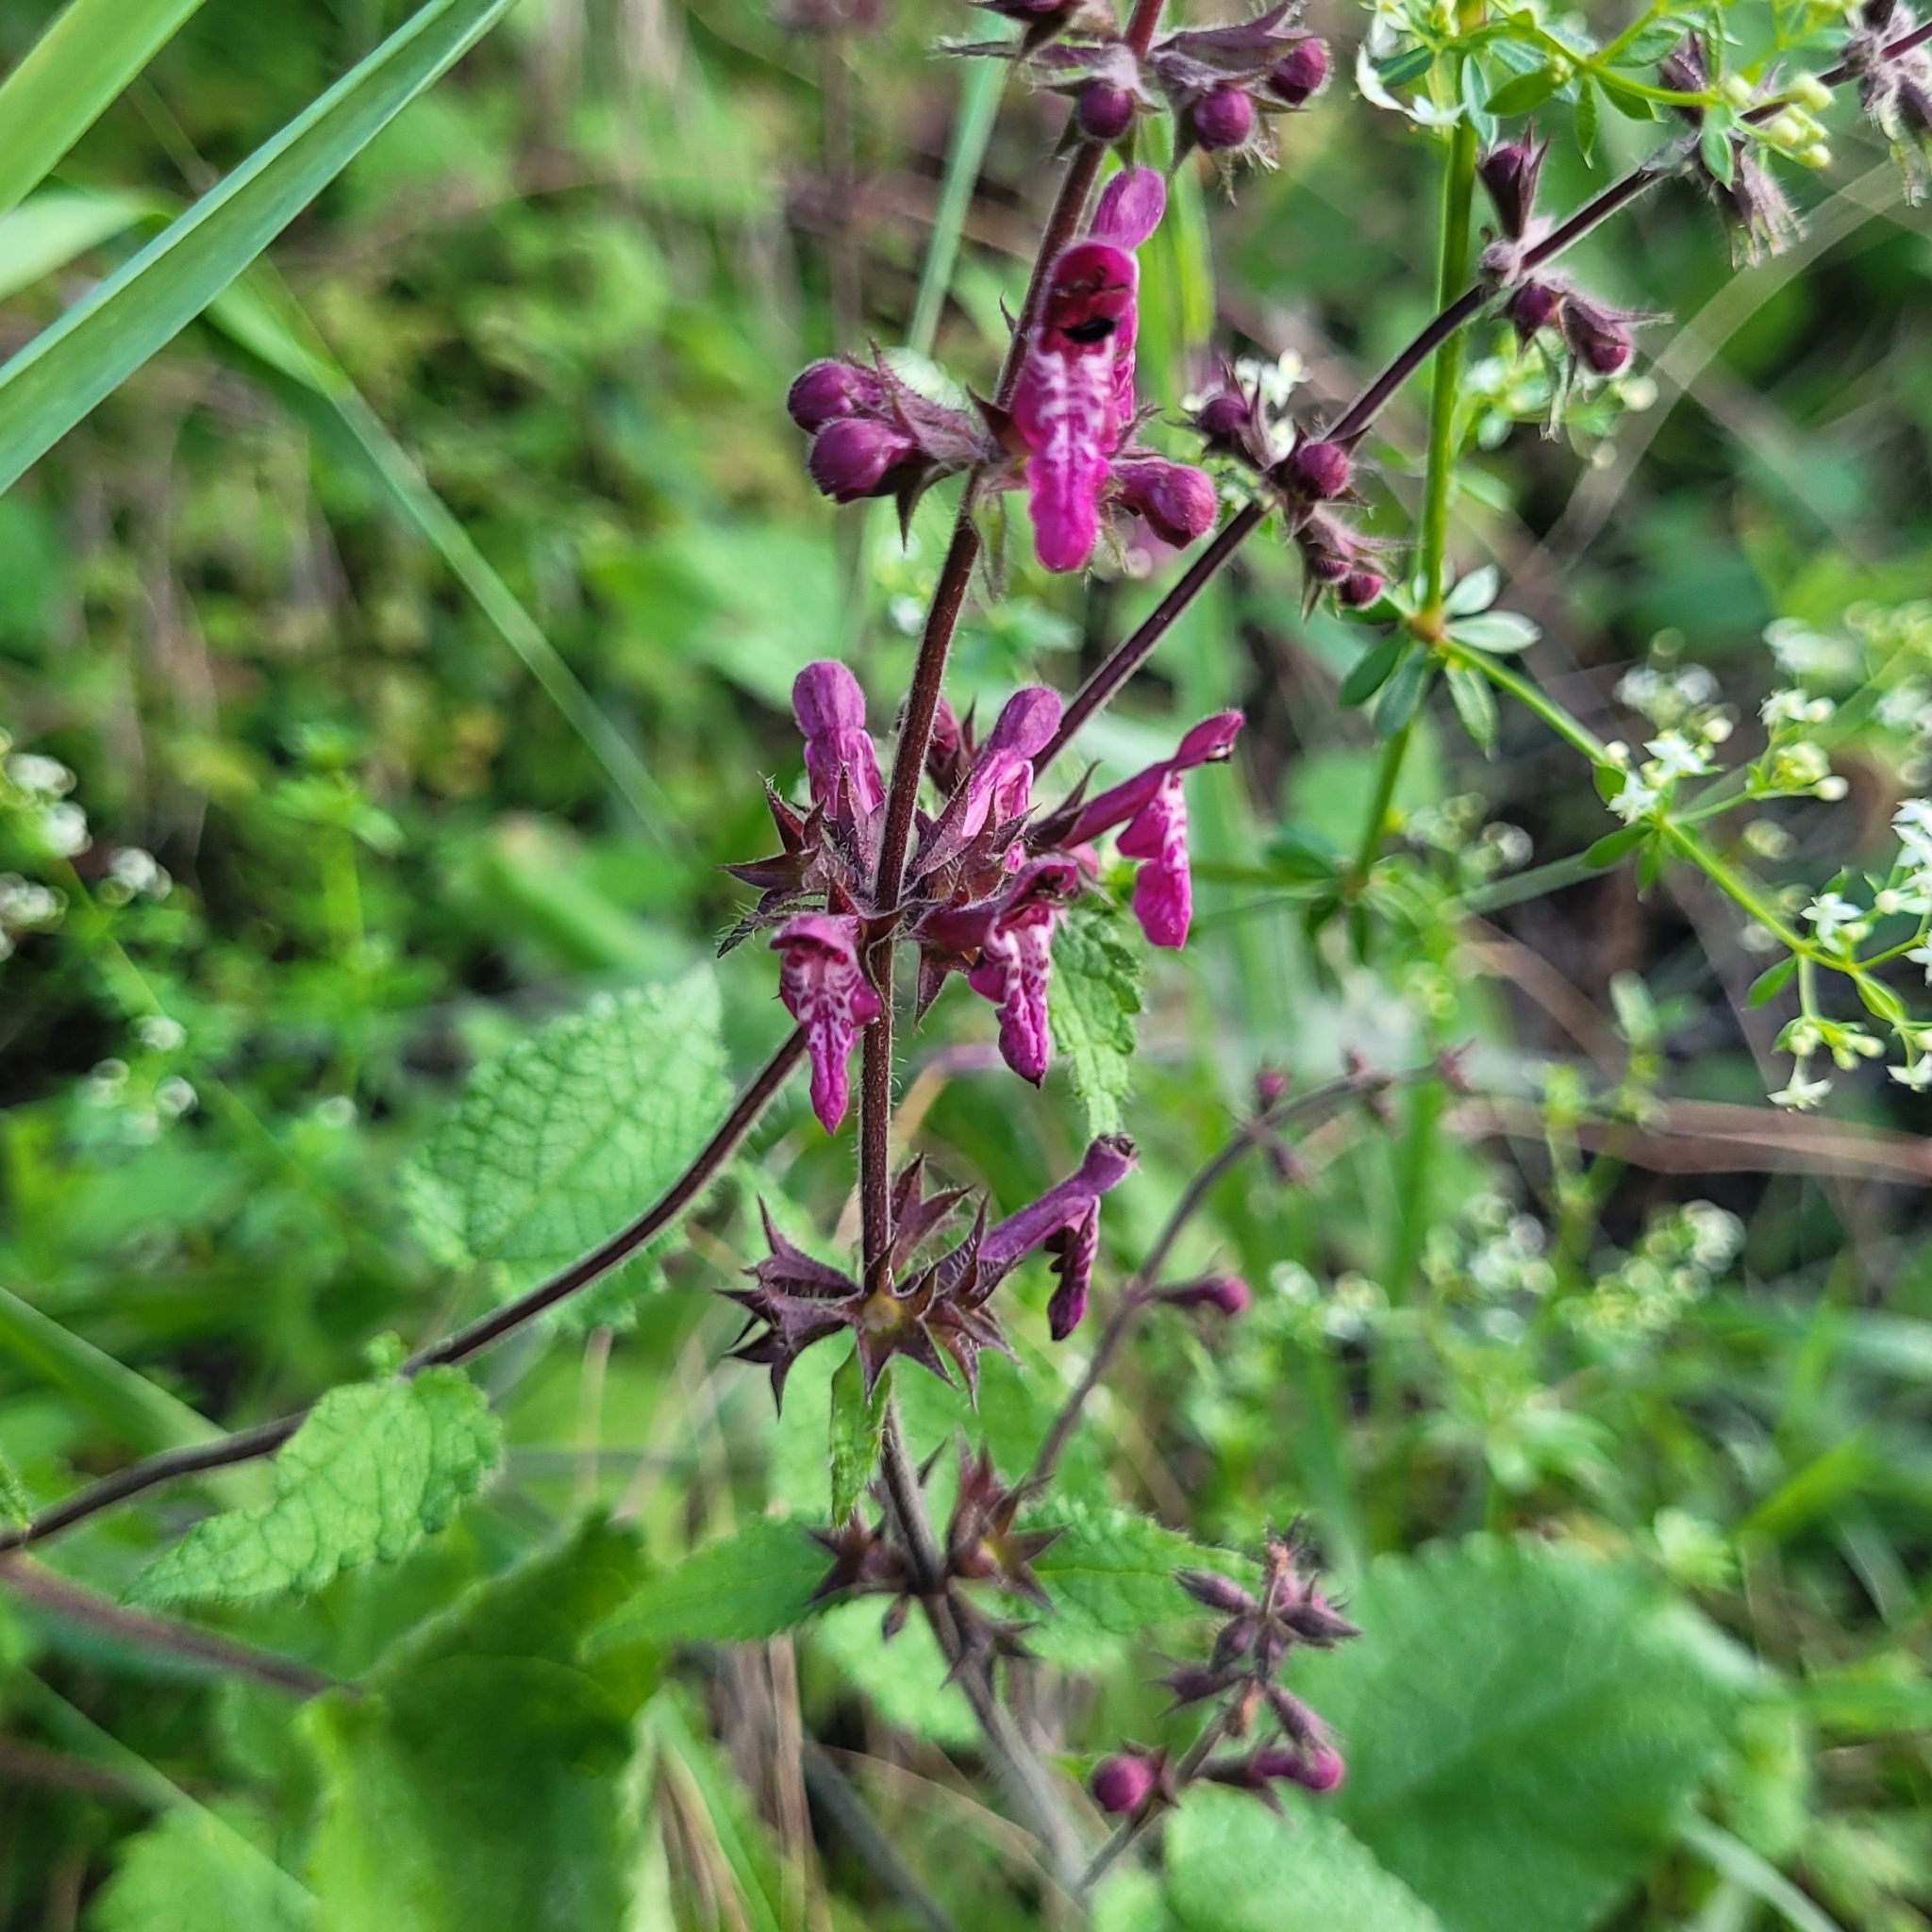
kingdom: Plantae
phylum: Tracheophyta
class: Magnoliopsida
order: Lamiales
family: Lamiaceae
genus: Stachys
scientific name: Stachys sylvatica
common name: Hedge woundwort
